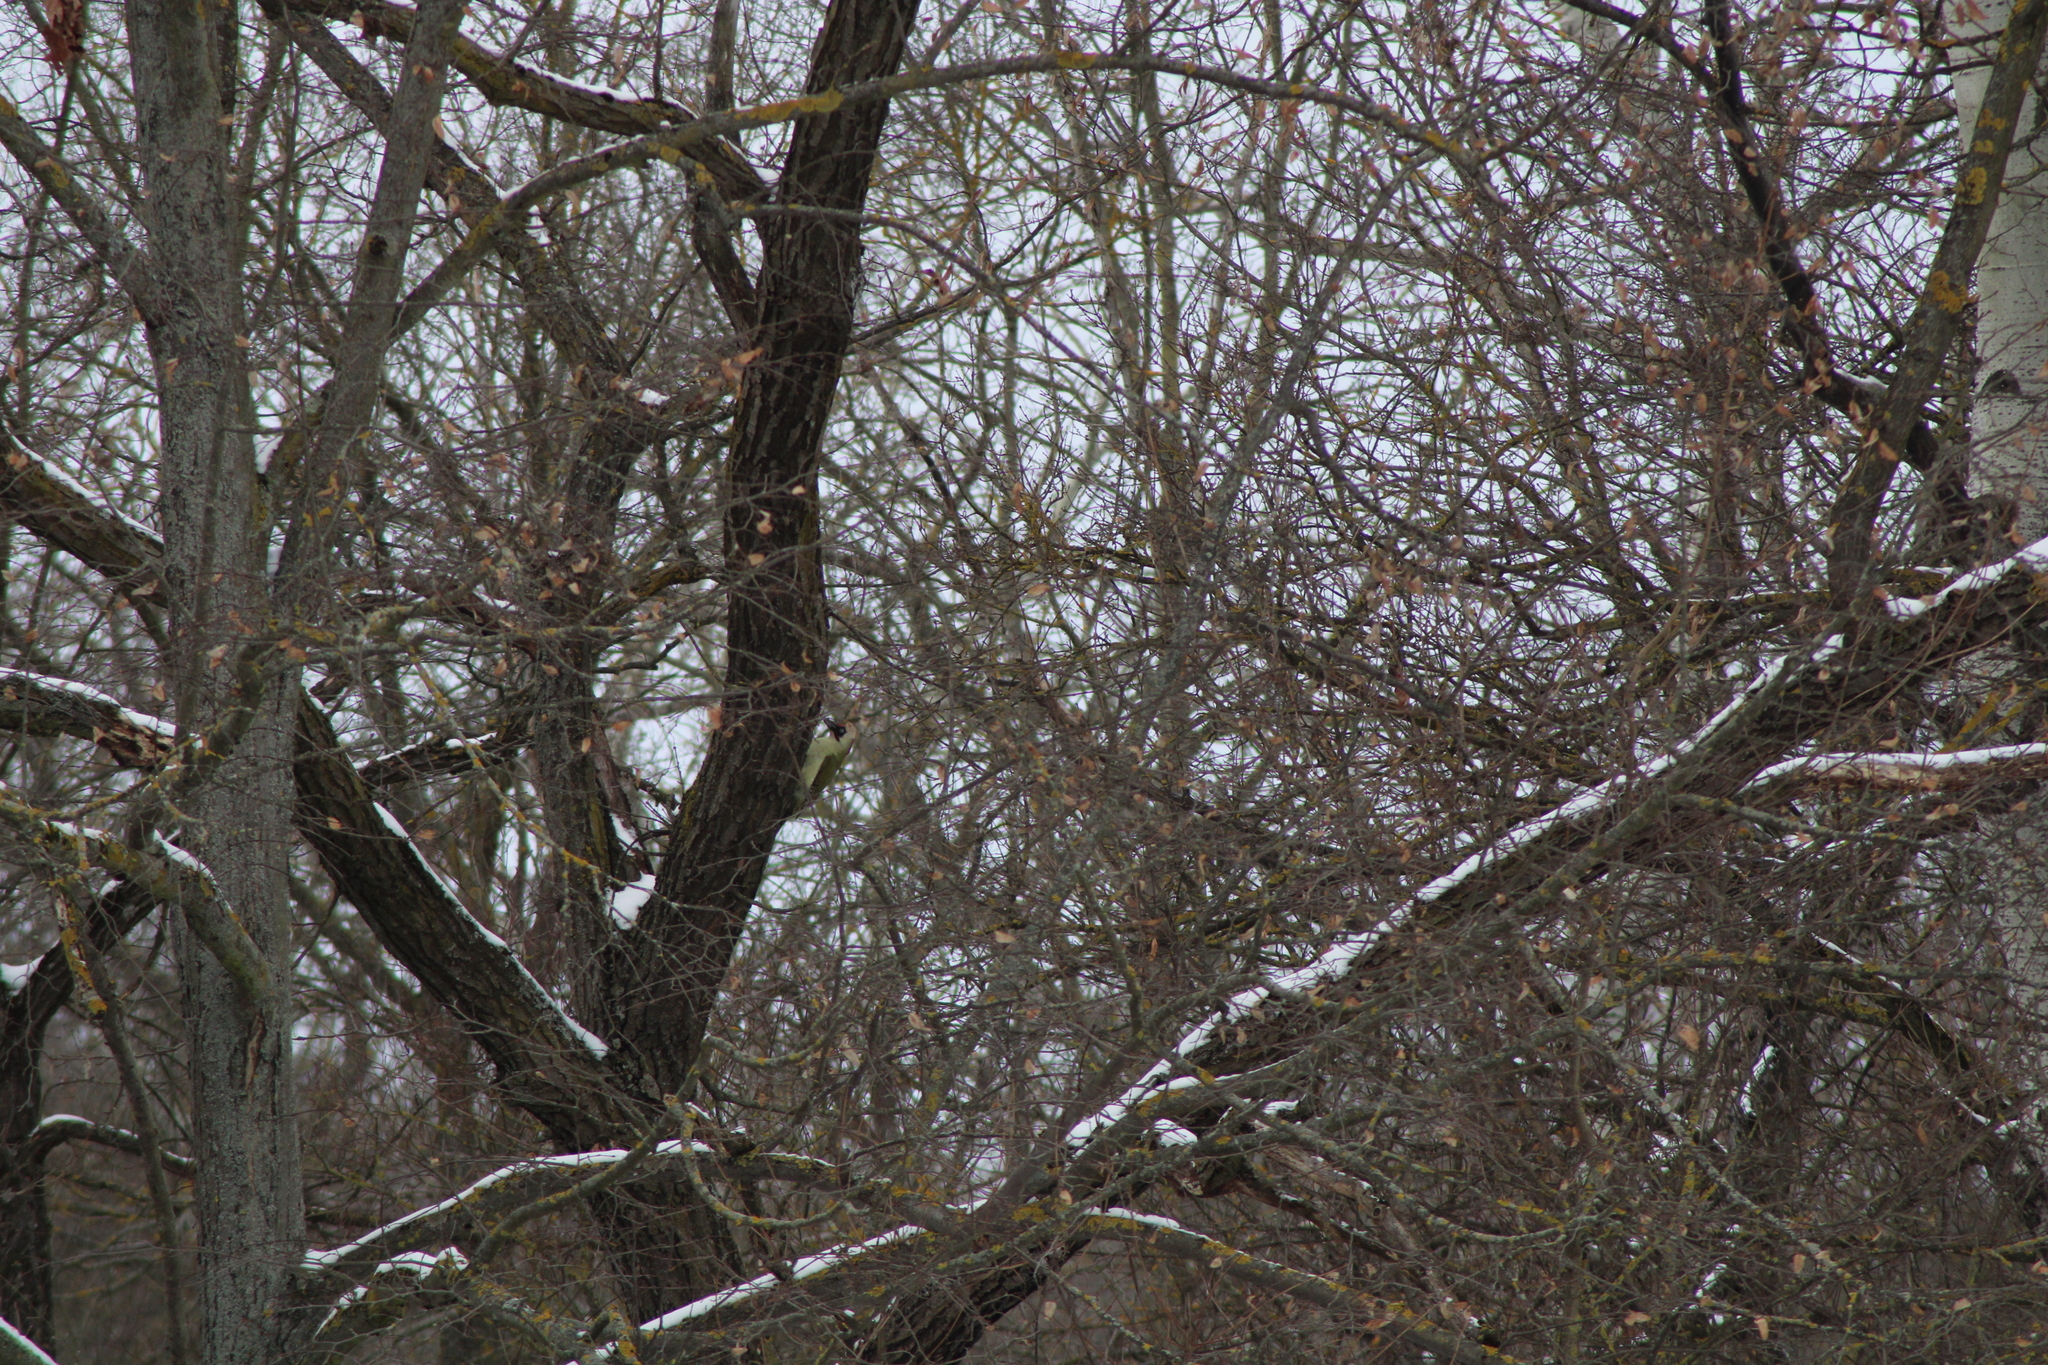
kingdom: Animalia
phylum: Chordata
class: Aves
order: Piciformes
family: Picidae
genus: Picus
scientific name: Picus viridis
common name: European green woodpecker
